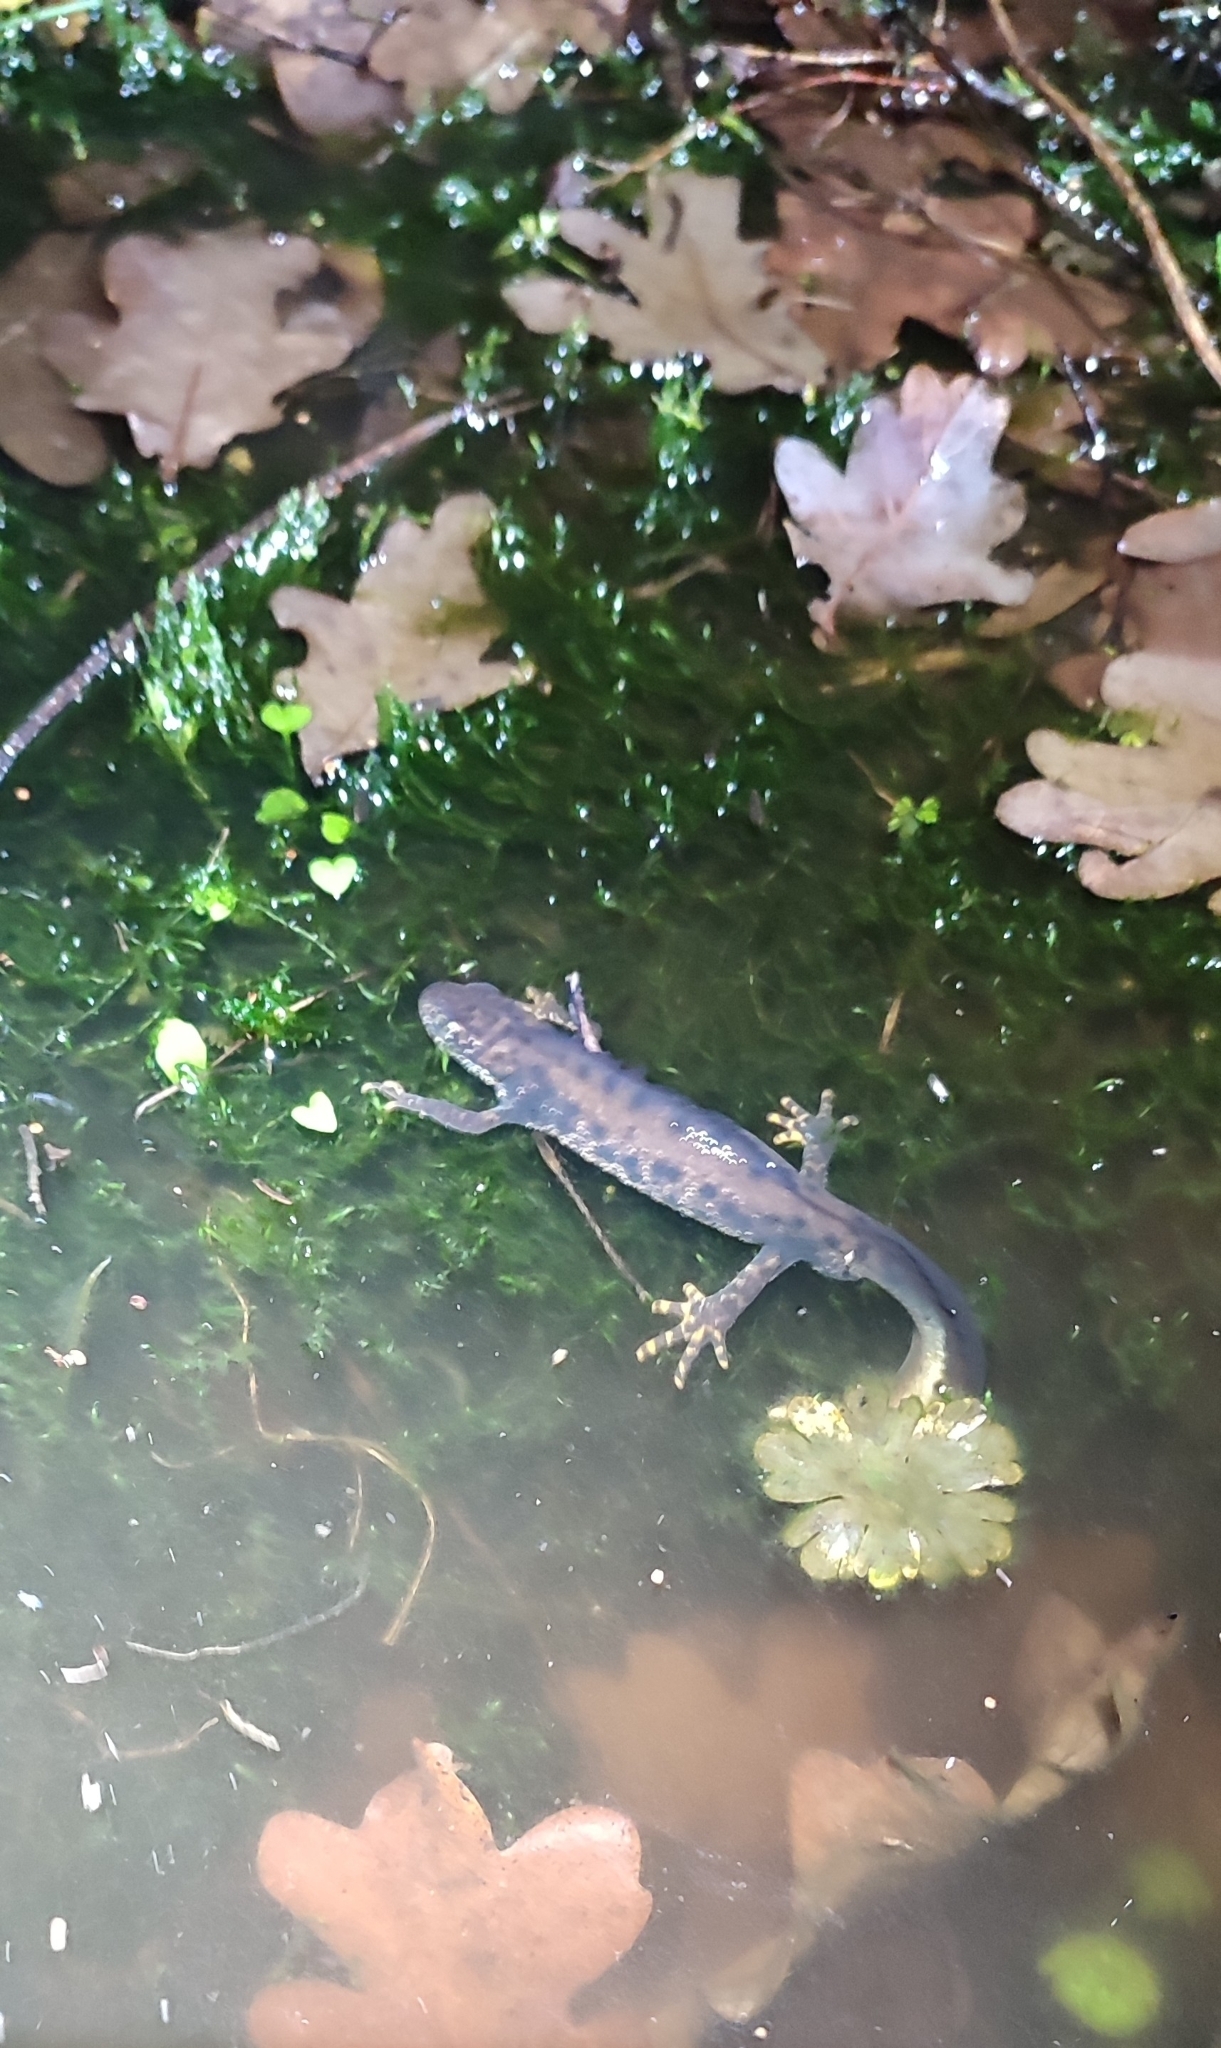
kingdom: Animalia
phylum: Chordata
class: Amphibia
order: Caudata
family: Salamandridae
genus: Triturus
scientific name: Triturus cristatus
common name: Crested newt
